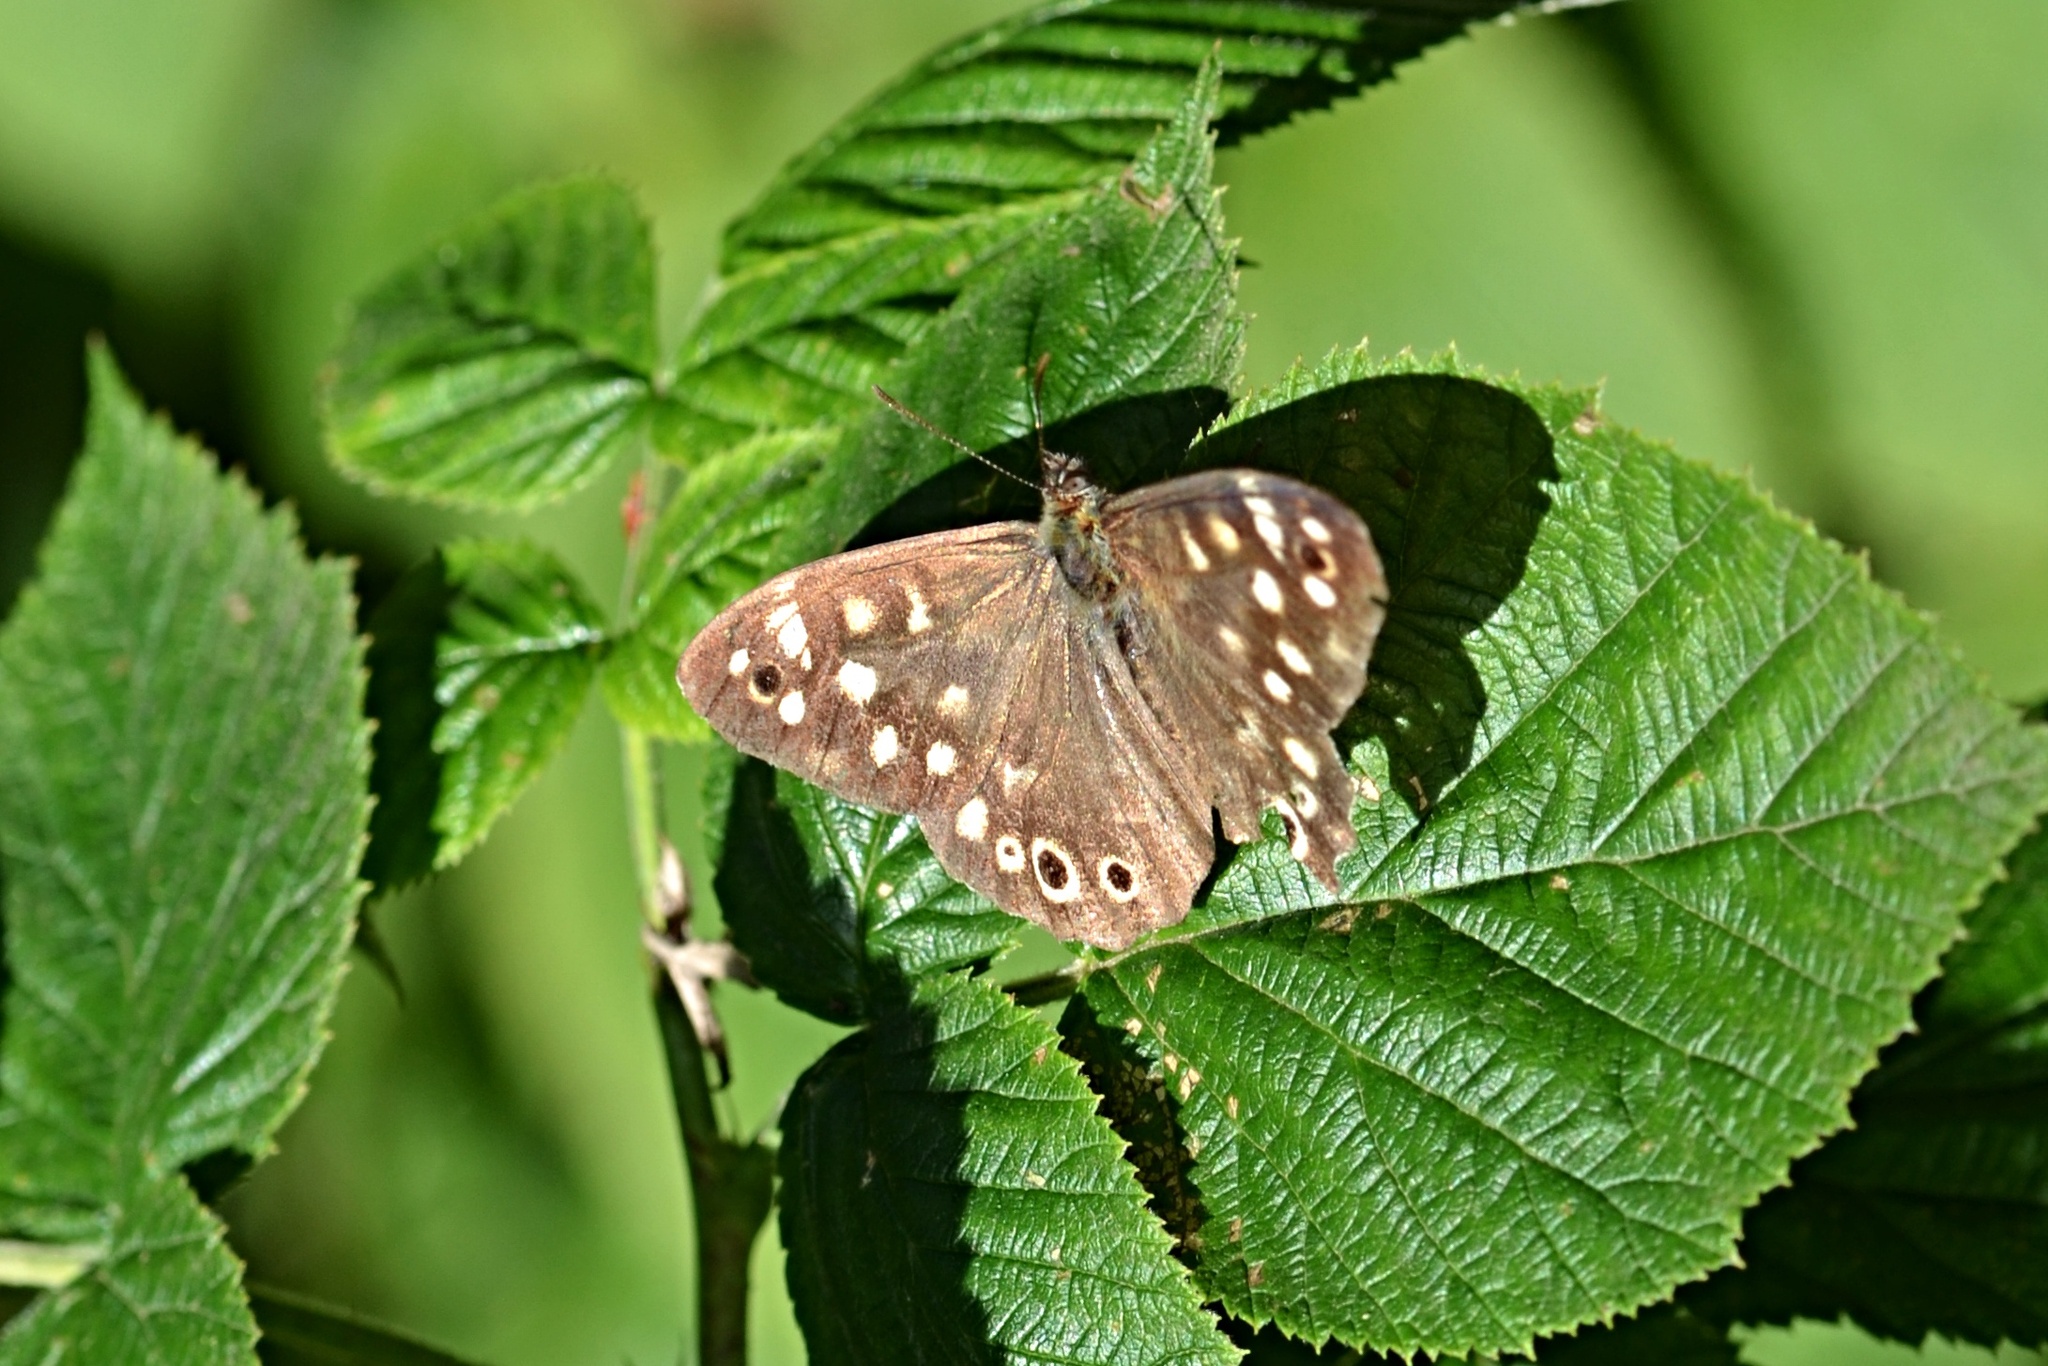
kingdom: Animalia
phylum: Arthropoda
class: Insecta
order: Lepidoptera
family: Nymphalidae
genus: Pararge
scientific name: Pararge aegeria
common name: Speckled wood
